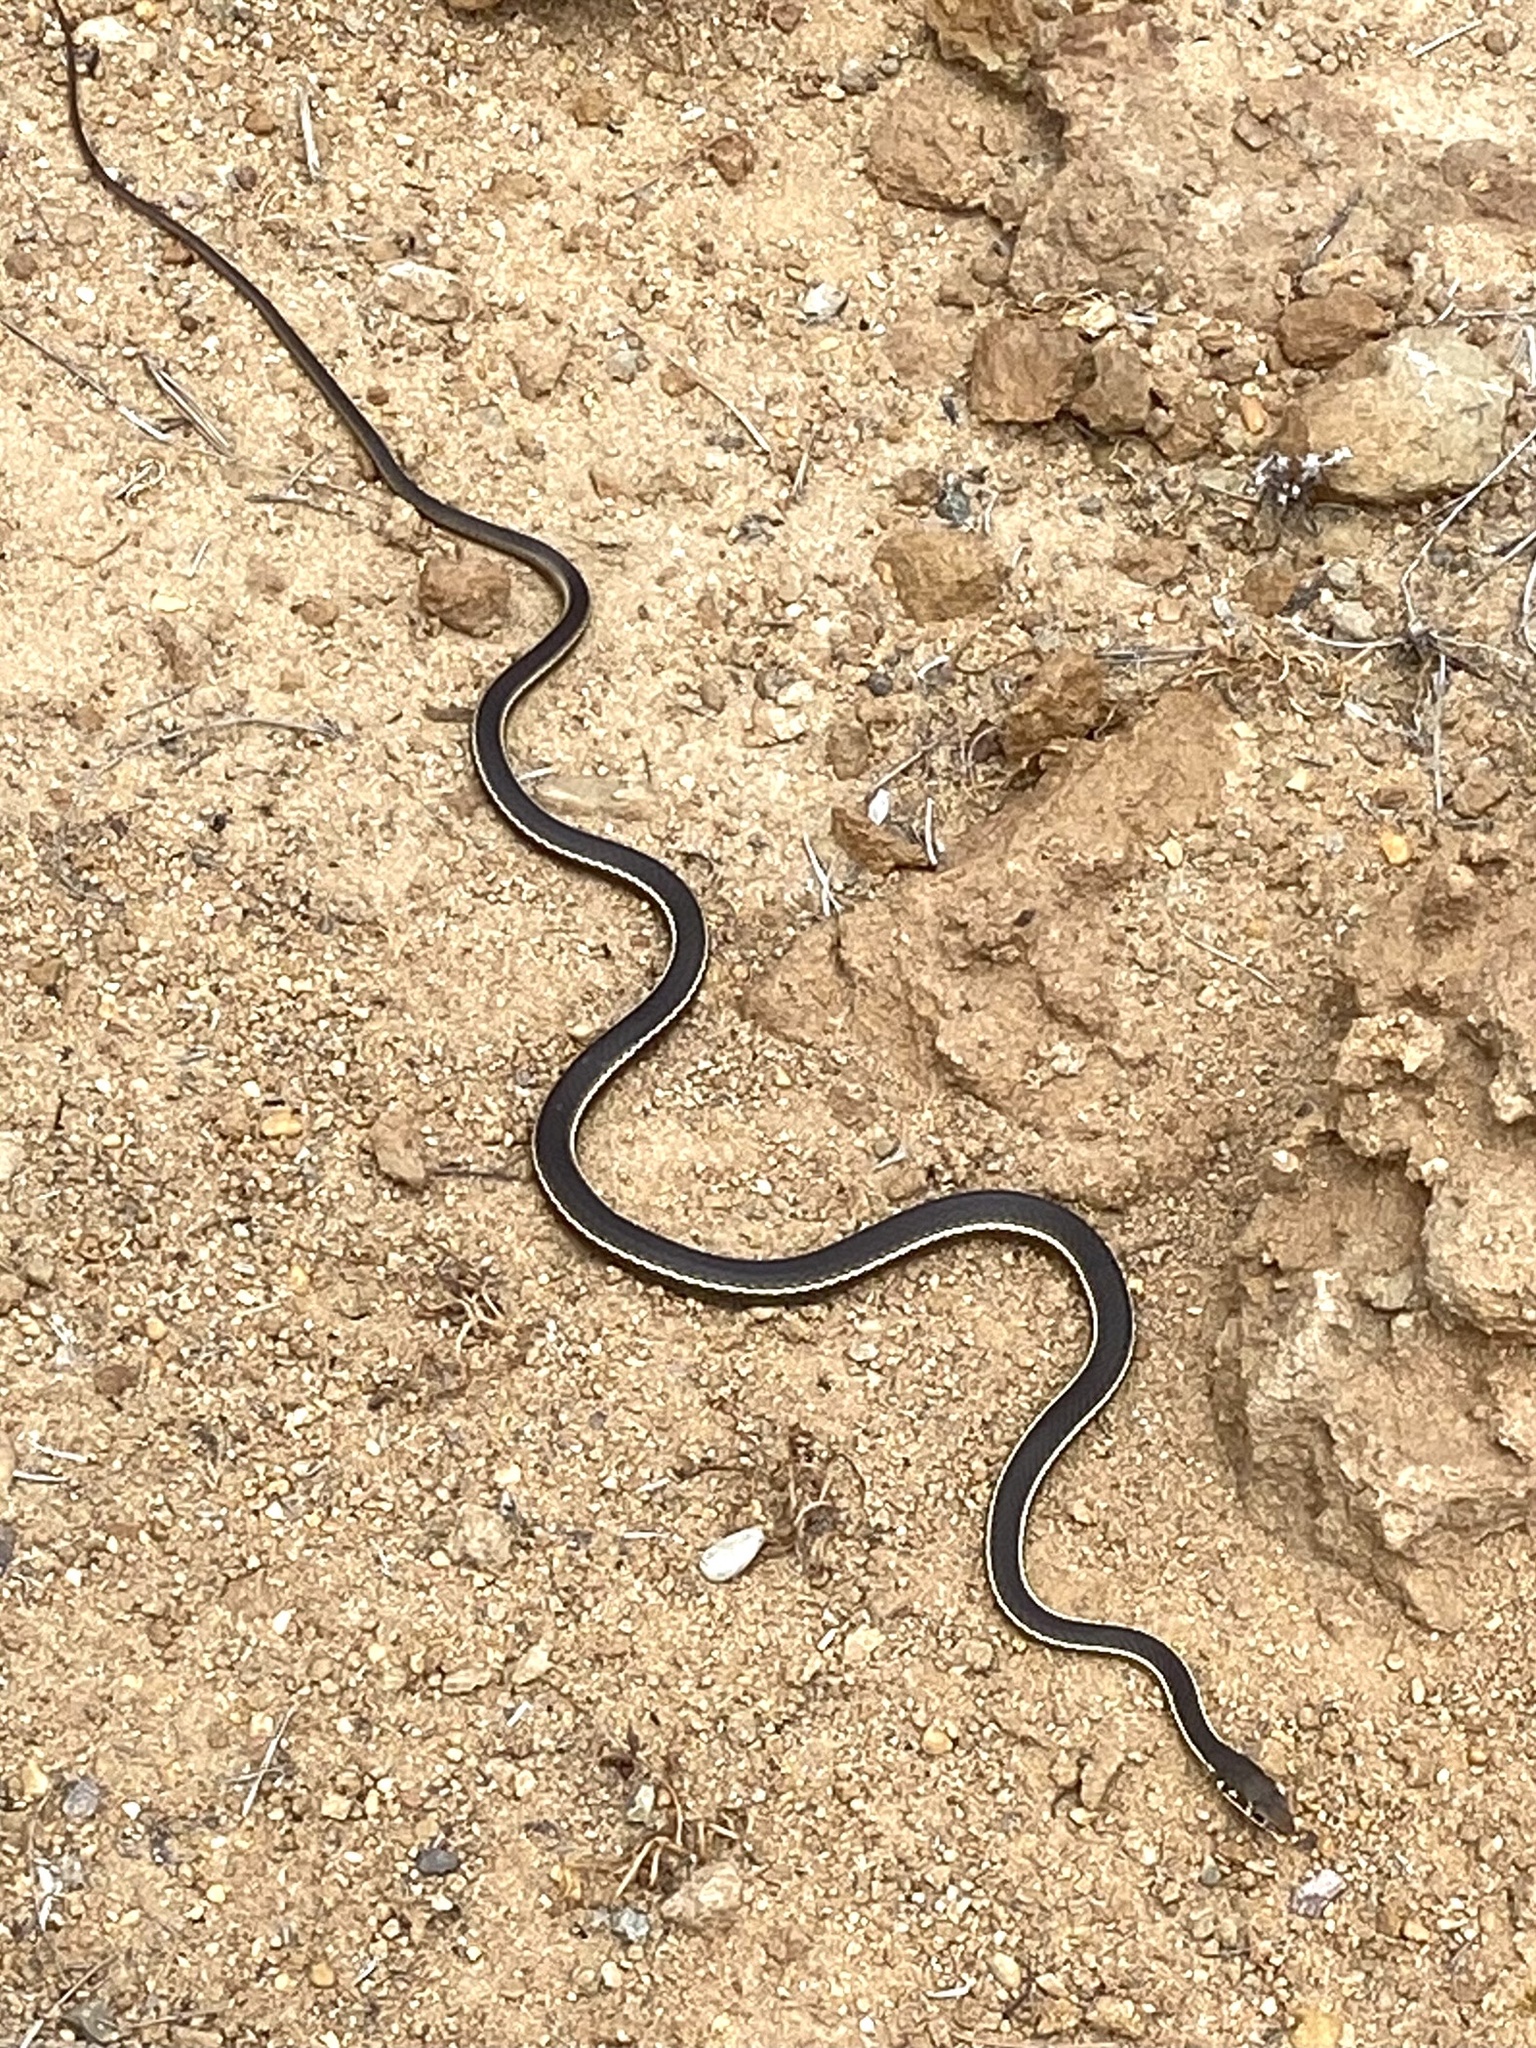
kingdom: Animalia
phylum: Chordata
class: Squamata
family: Colubridae
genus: Masticophis
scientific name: Masticophis lateralis
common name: Striped racer
